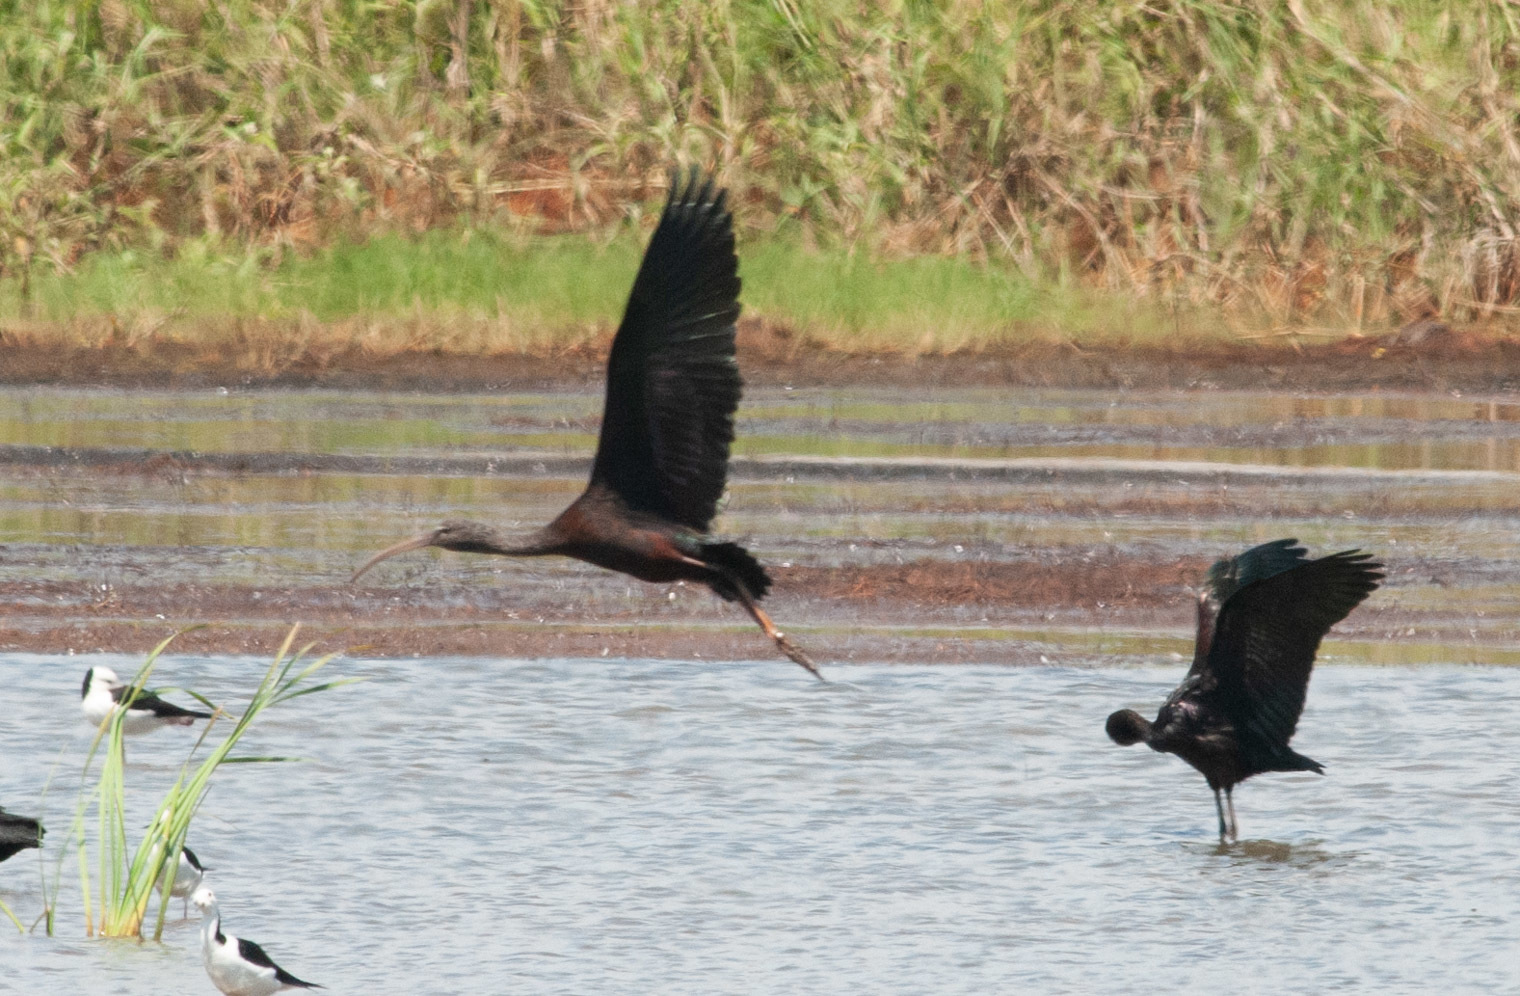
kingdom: Animalia
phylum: Chordata
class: Aves
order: Pelecaniformes
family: Threskiornithidae
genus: Plegadis
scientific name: Plegadis falcinellus
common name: Glossy ibis
